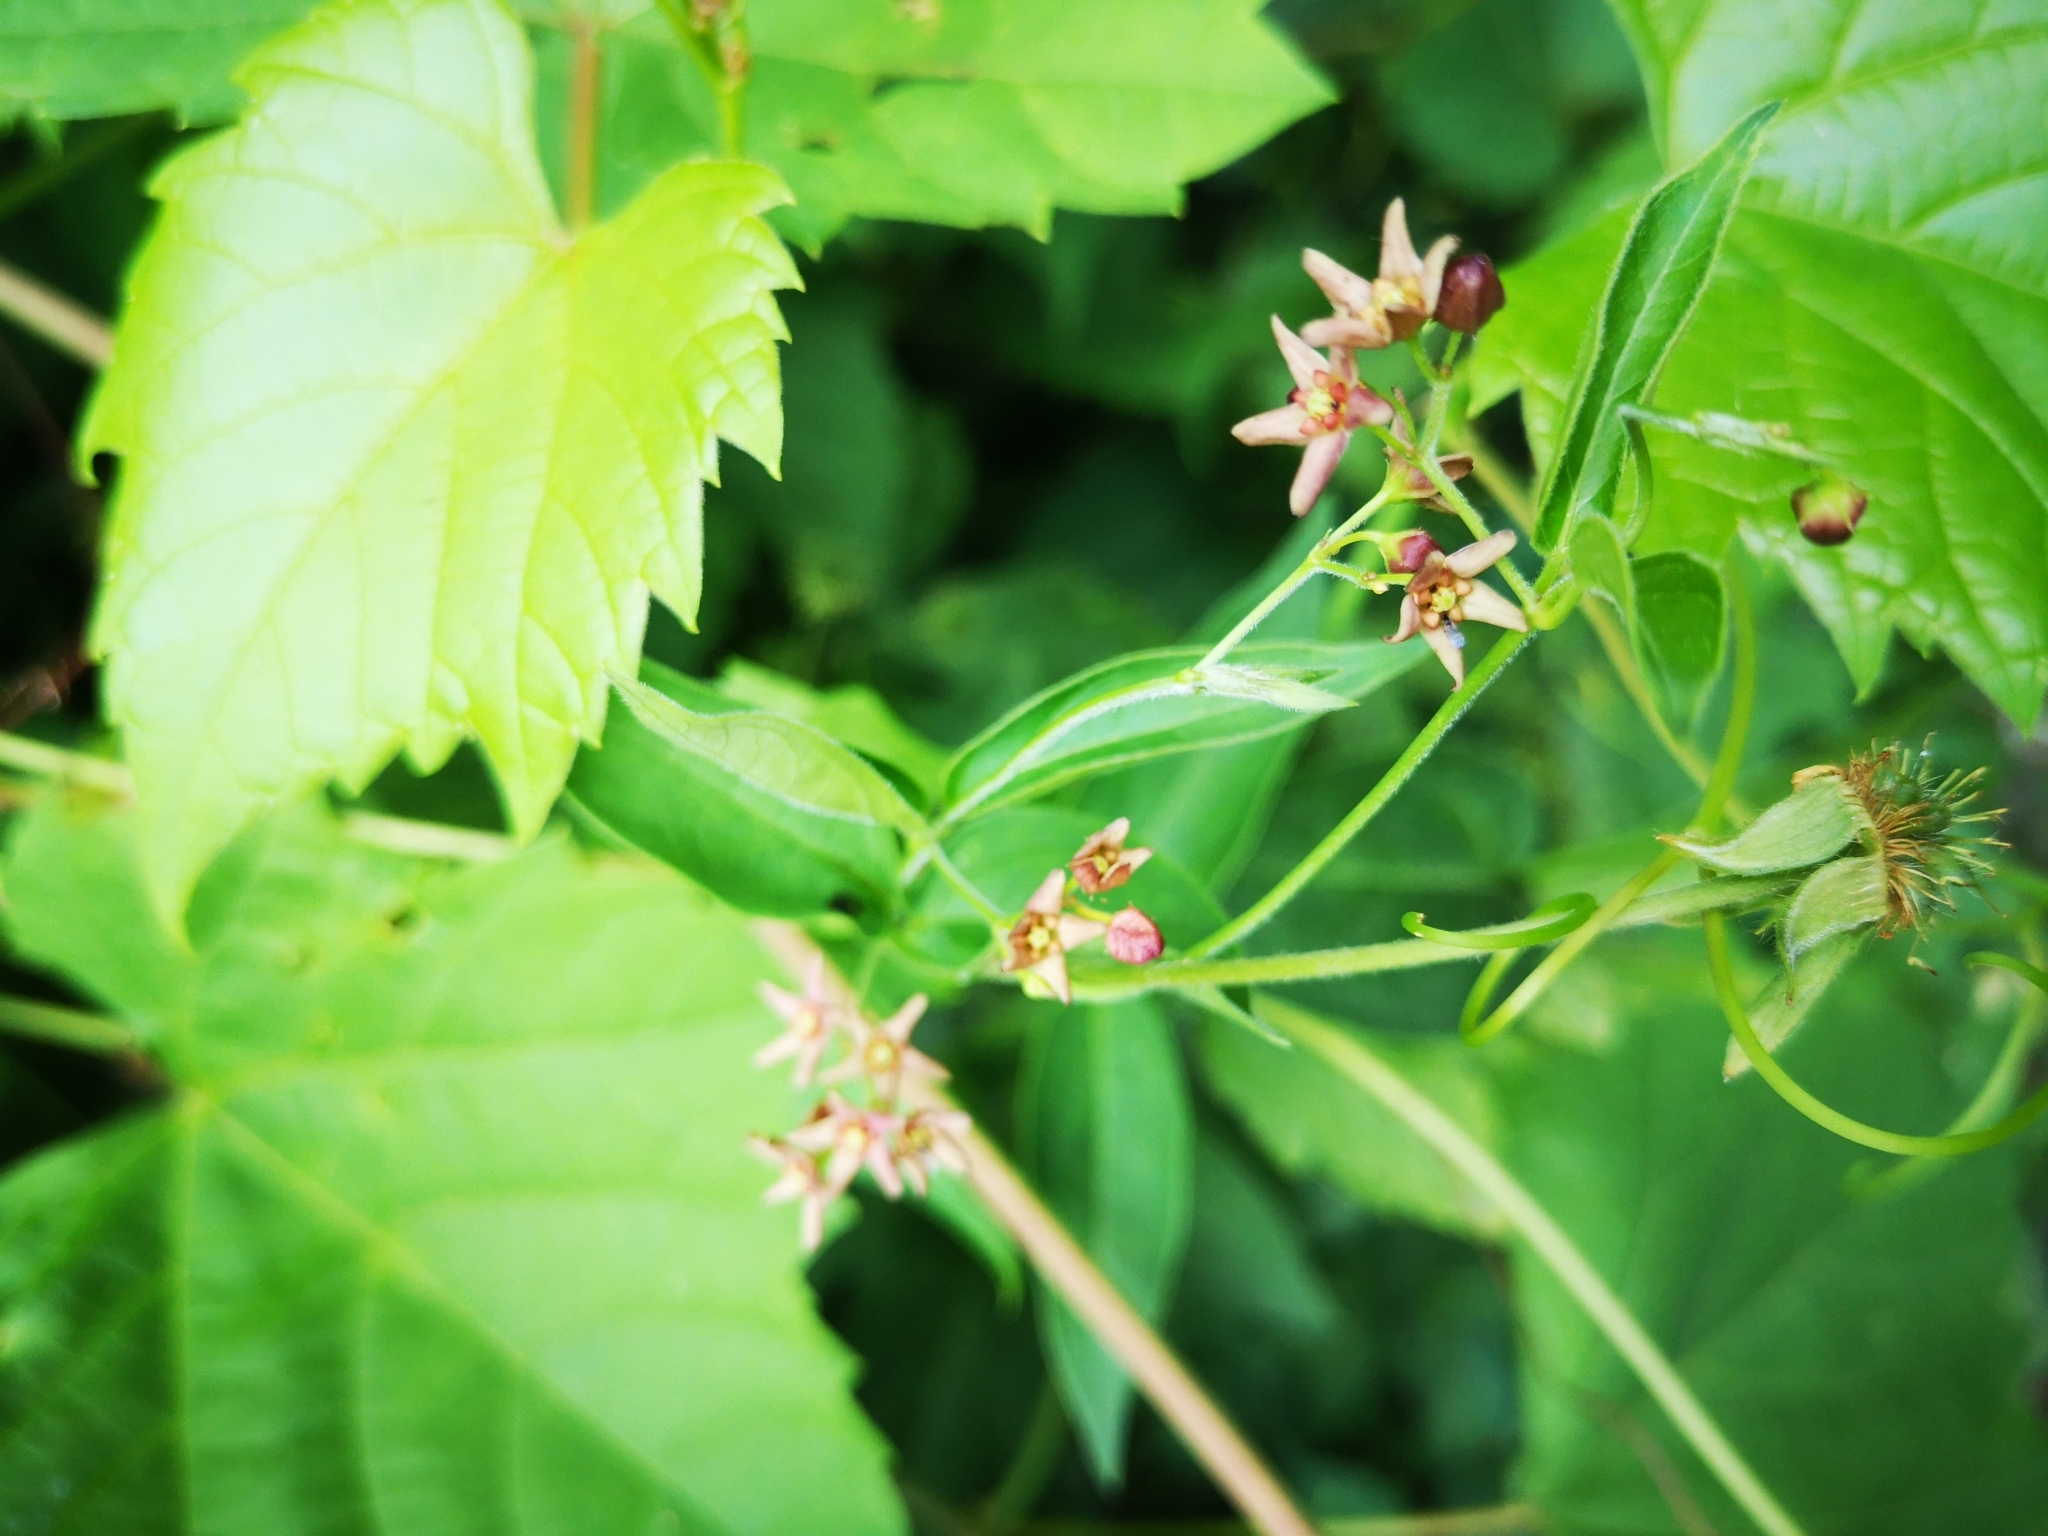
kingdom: Plantae
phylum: Tracheophyta
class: Magnoliopsida
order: Gentianales
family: Apocynaceae
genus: Vincetoxicum
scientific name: Vincetoxicum rossicum
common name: Dog-strangling vine
